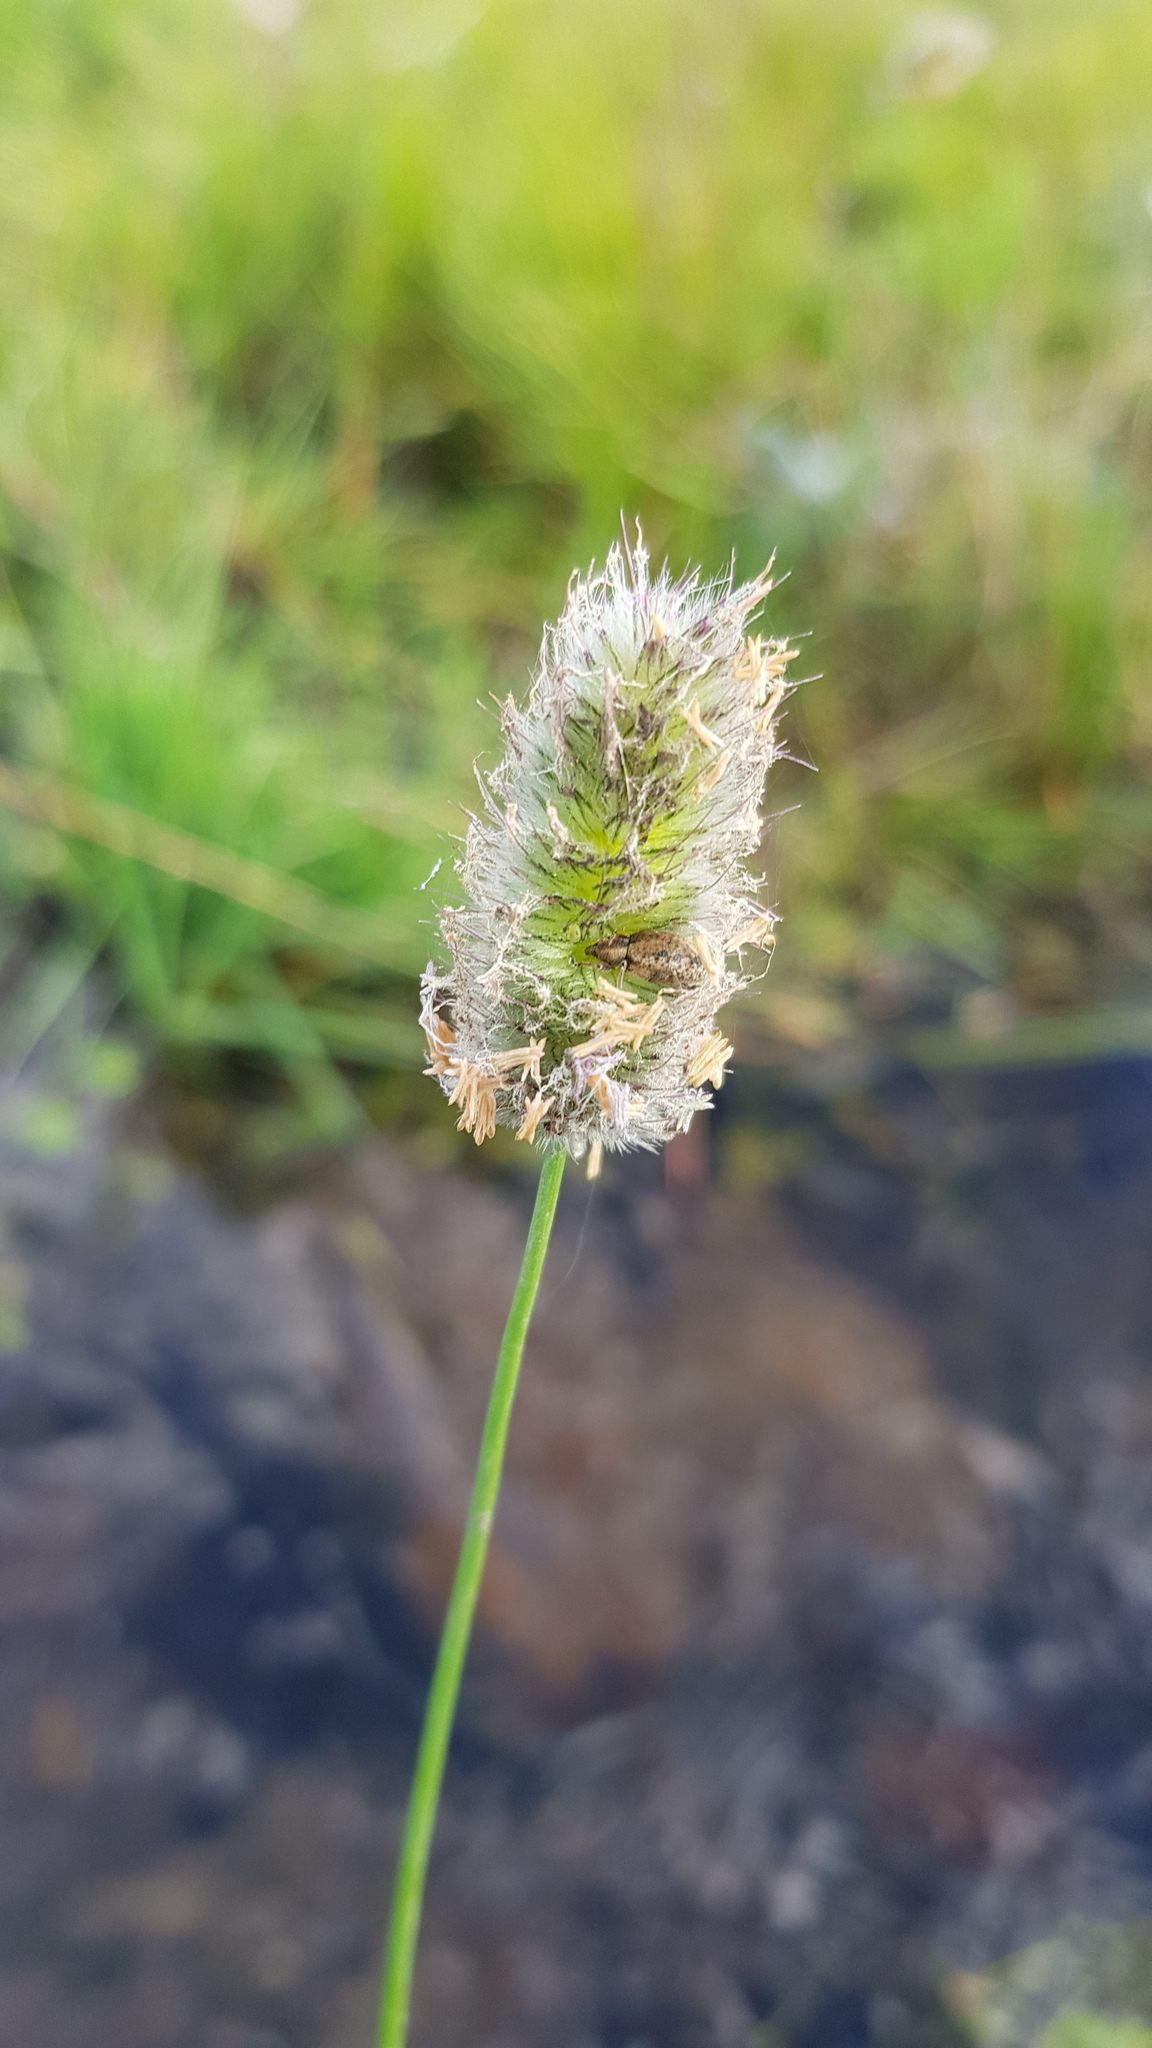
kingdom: Plantae
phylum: Tracheophyta
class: Liliopsida
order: Poales
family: Poaceae
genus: Alopecurus
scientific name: Alopecurus brachystachyus
